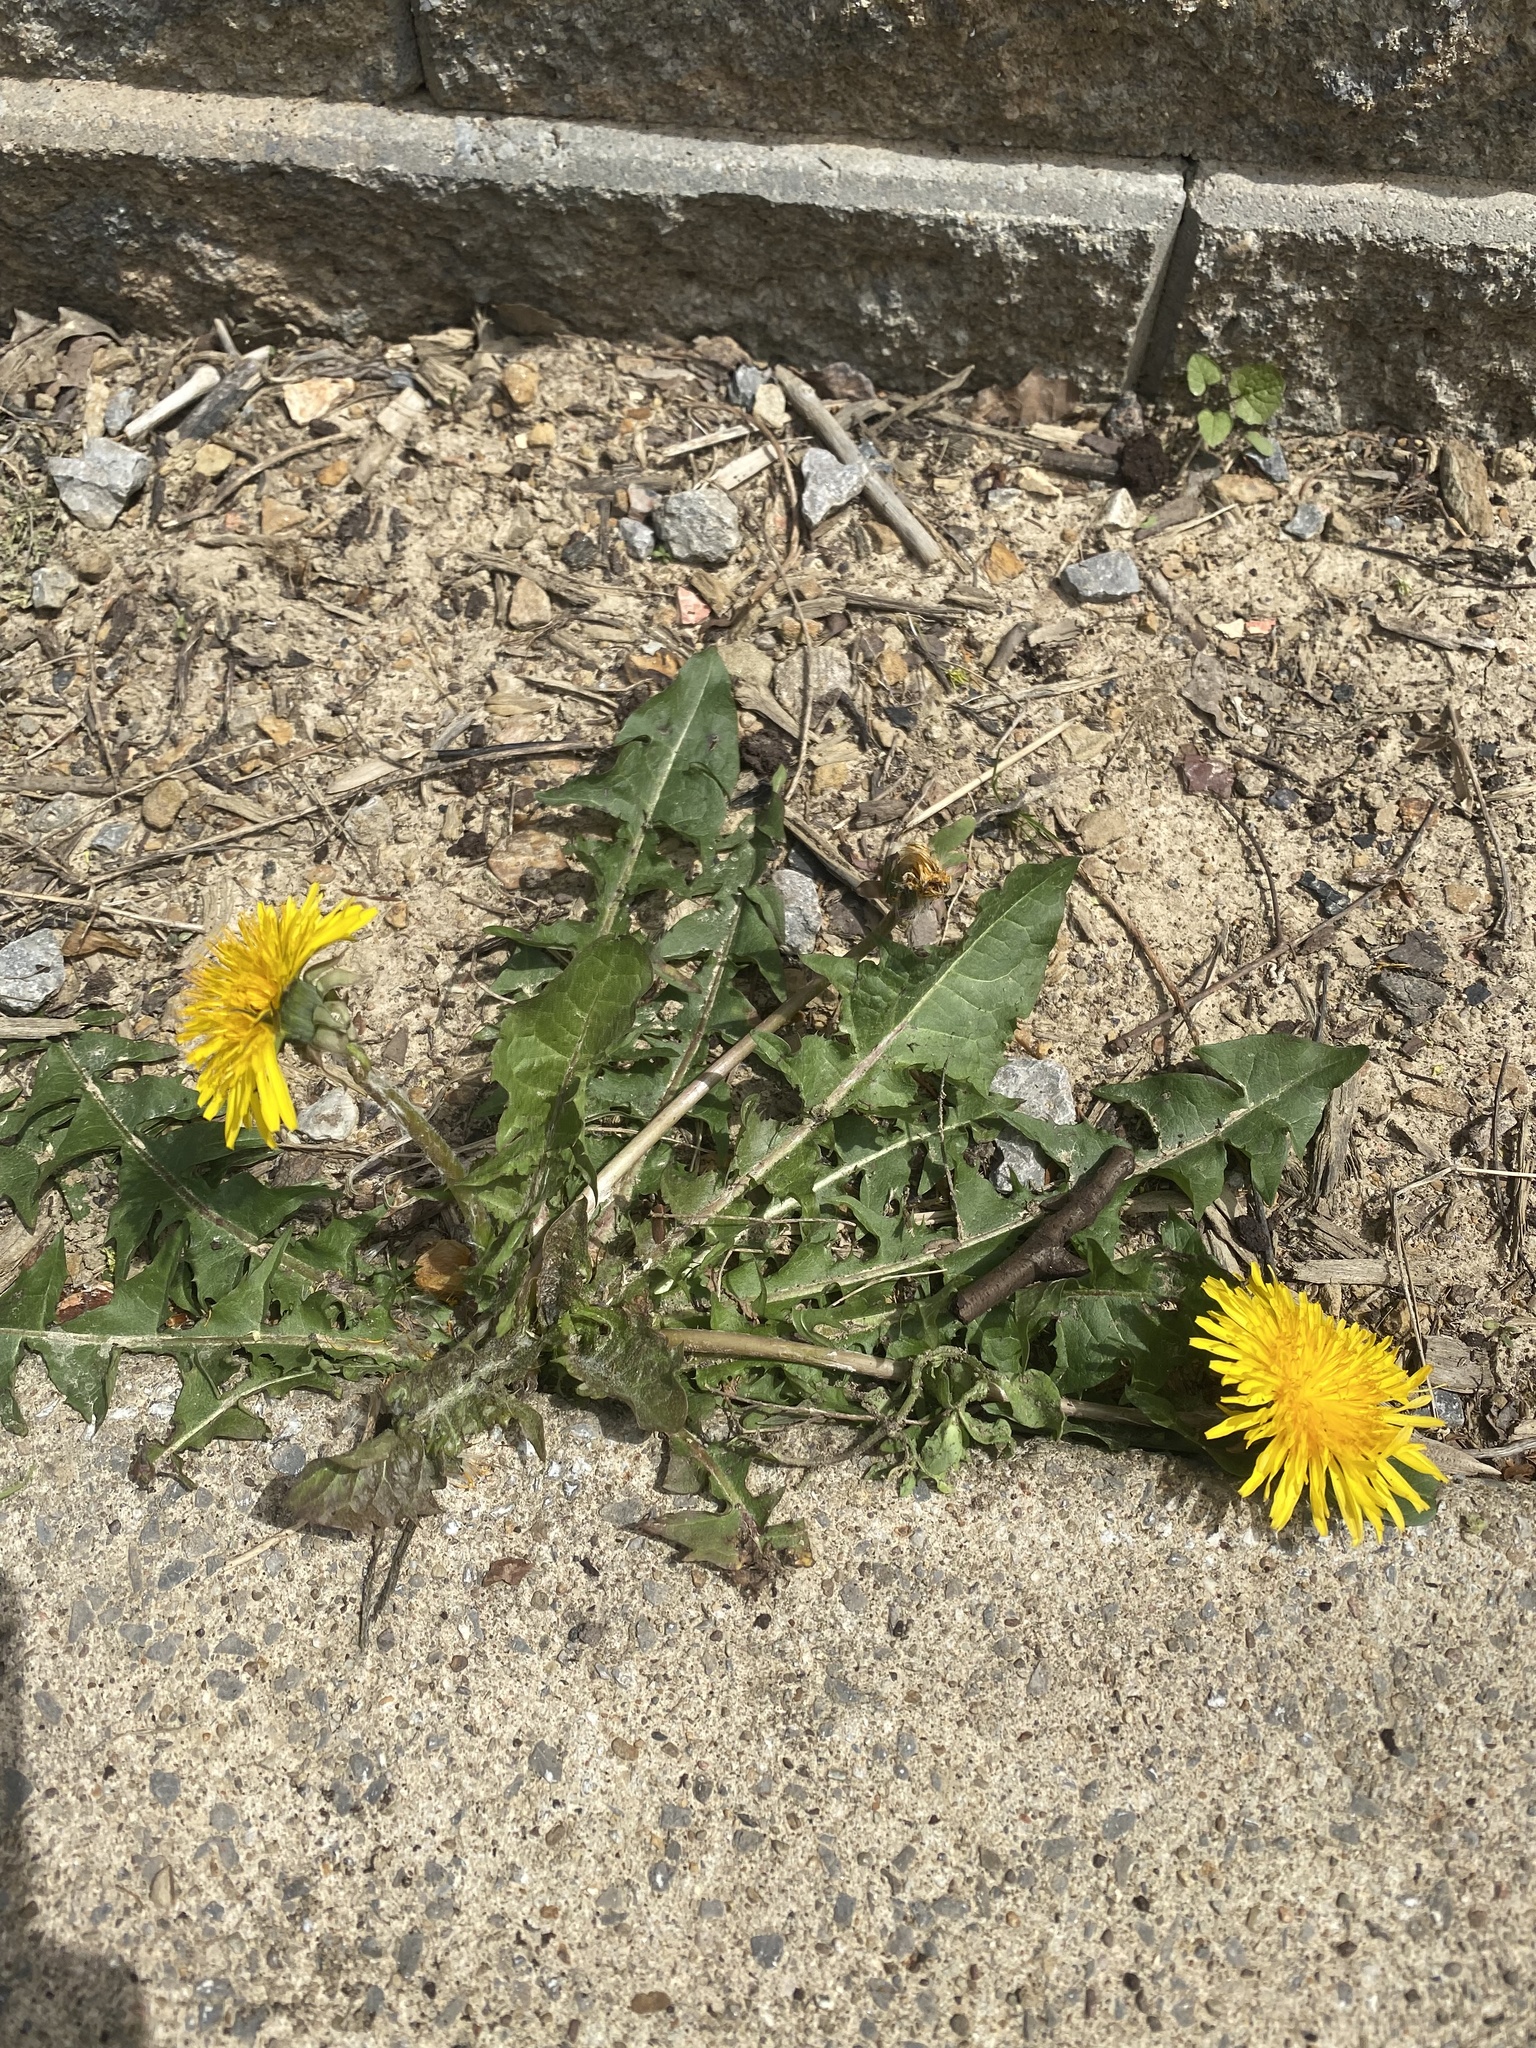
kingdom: Plantae
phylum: Tracheophyta
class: Magnoliopsida
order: Asterales
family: Asteraceae
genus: Taraxacum
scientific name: Taraxacum officinale
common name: Common dandelion
